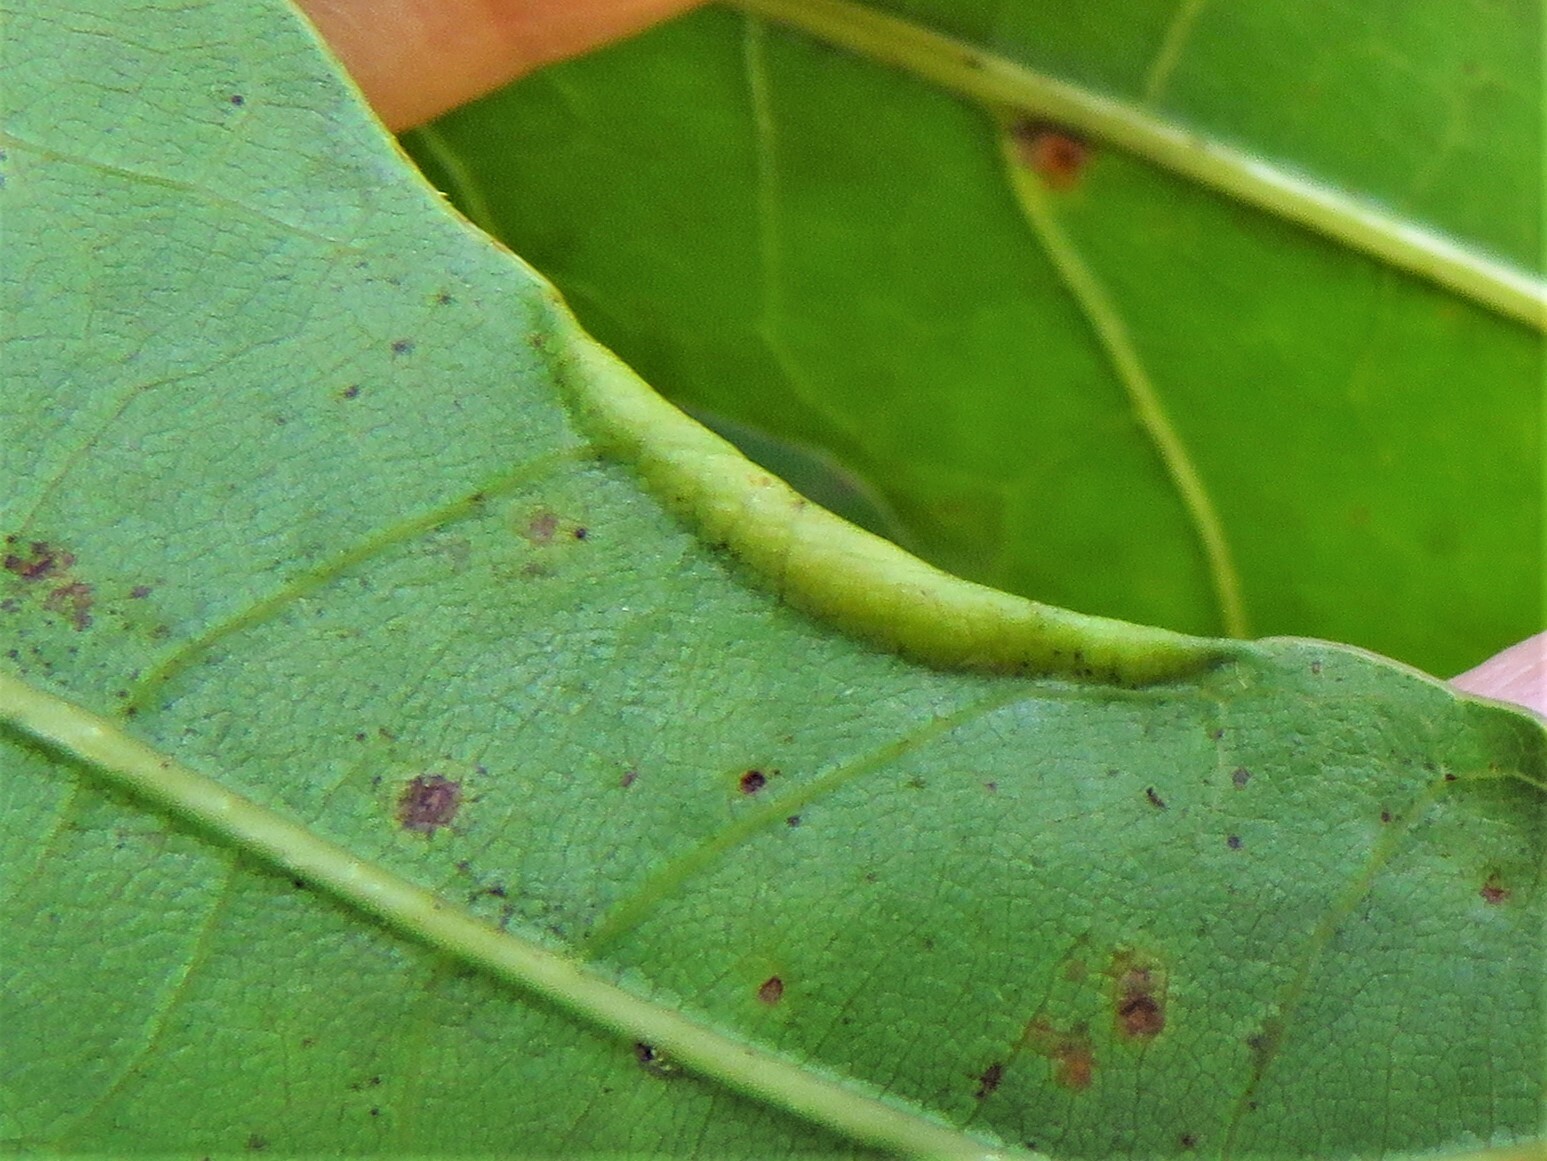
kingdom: Animalia
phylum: Arthropoda
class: Insecta
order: Diptera
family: Cecidomyiidae
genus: Macrodiplosis
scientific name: Macrodiplosis erubescens
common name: Marginal leaf fold gall midge
